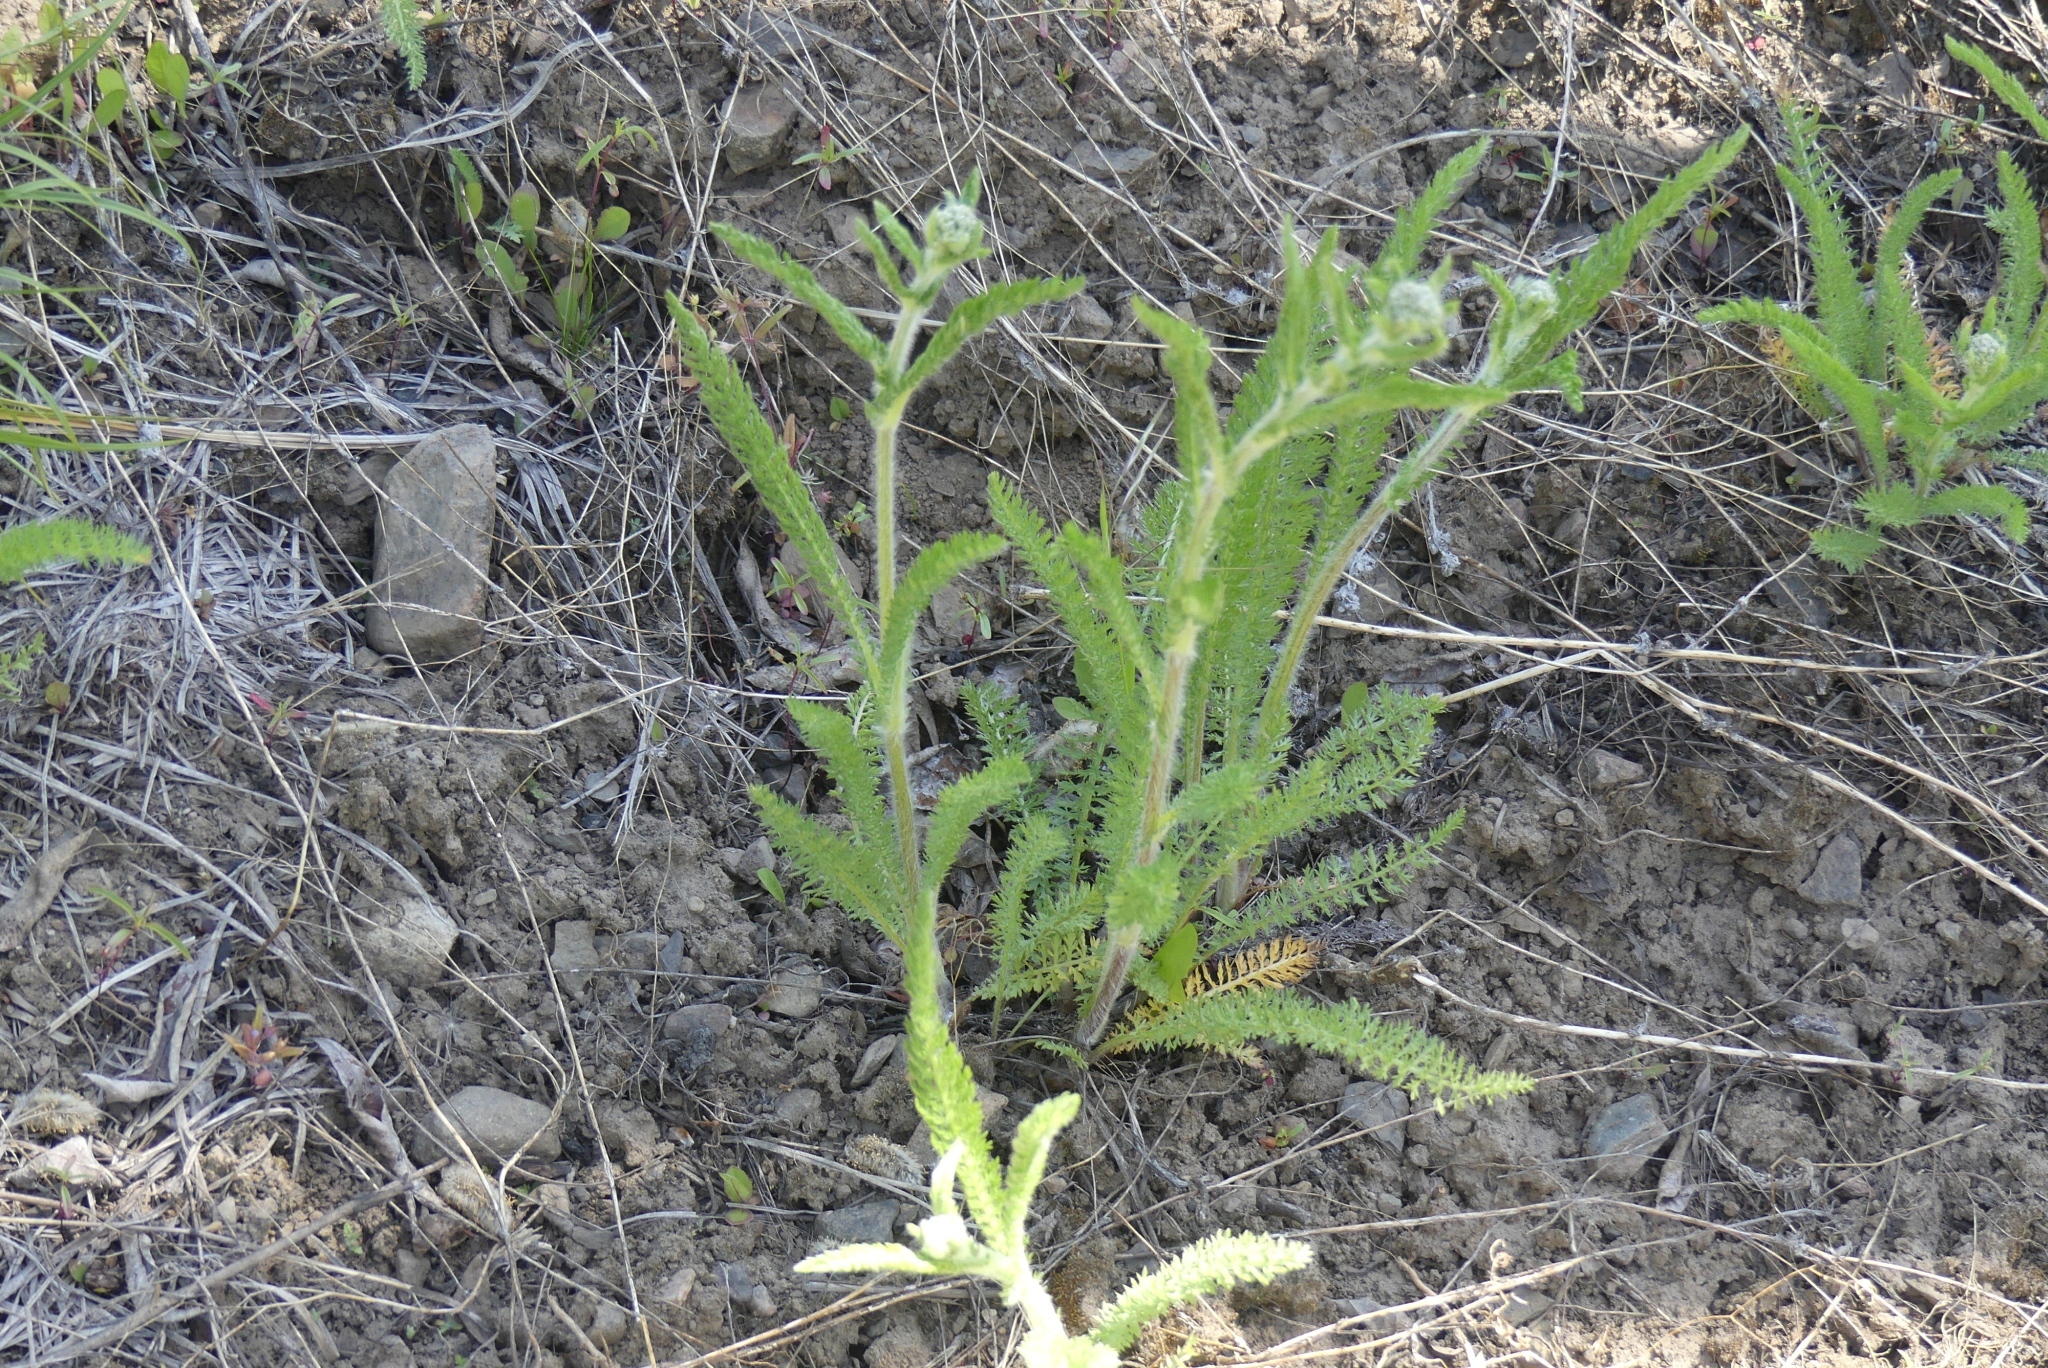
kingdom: Plantae
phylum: Tracheophyta
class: Magnoliopsida
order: Asterales
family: Asteraceae
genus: Achillea
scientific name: Achillea millefolium
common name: Yarrow
